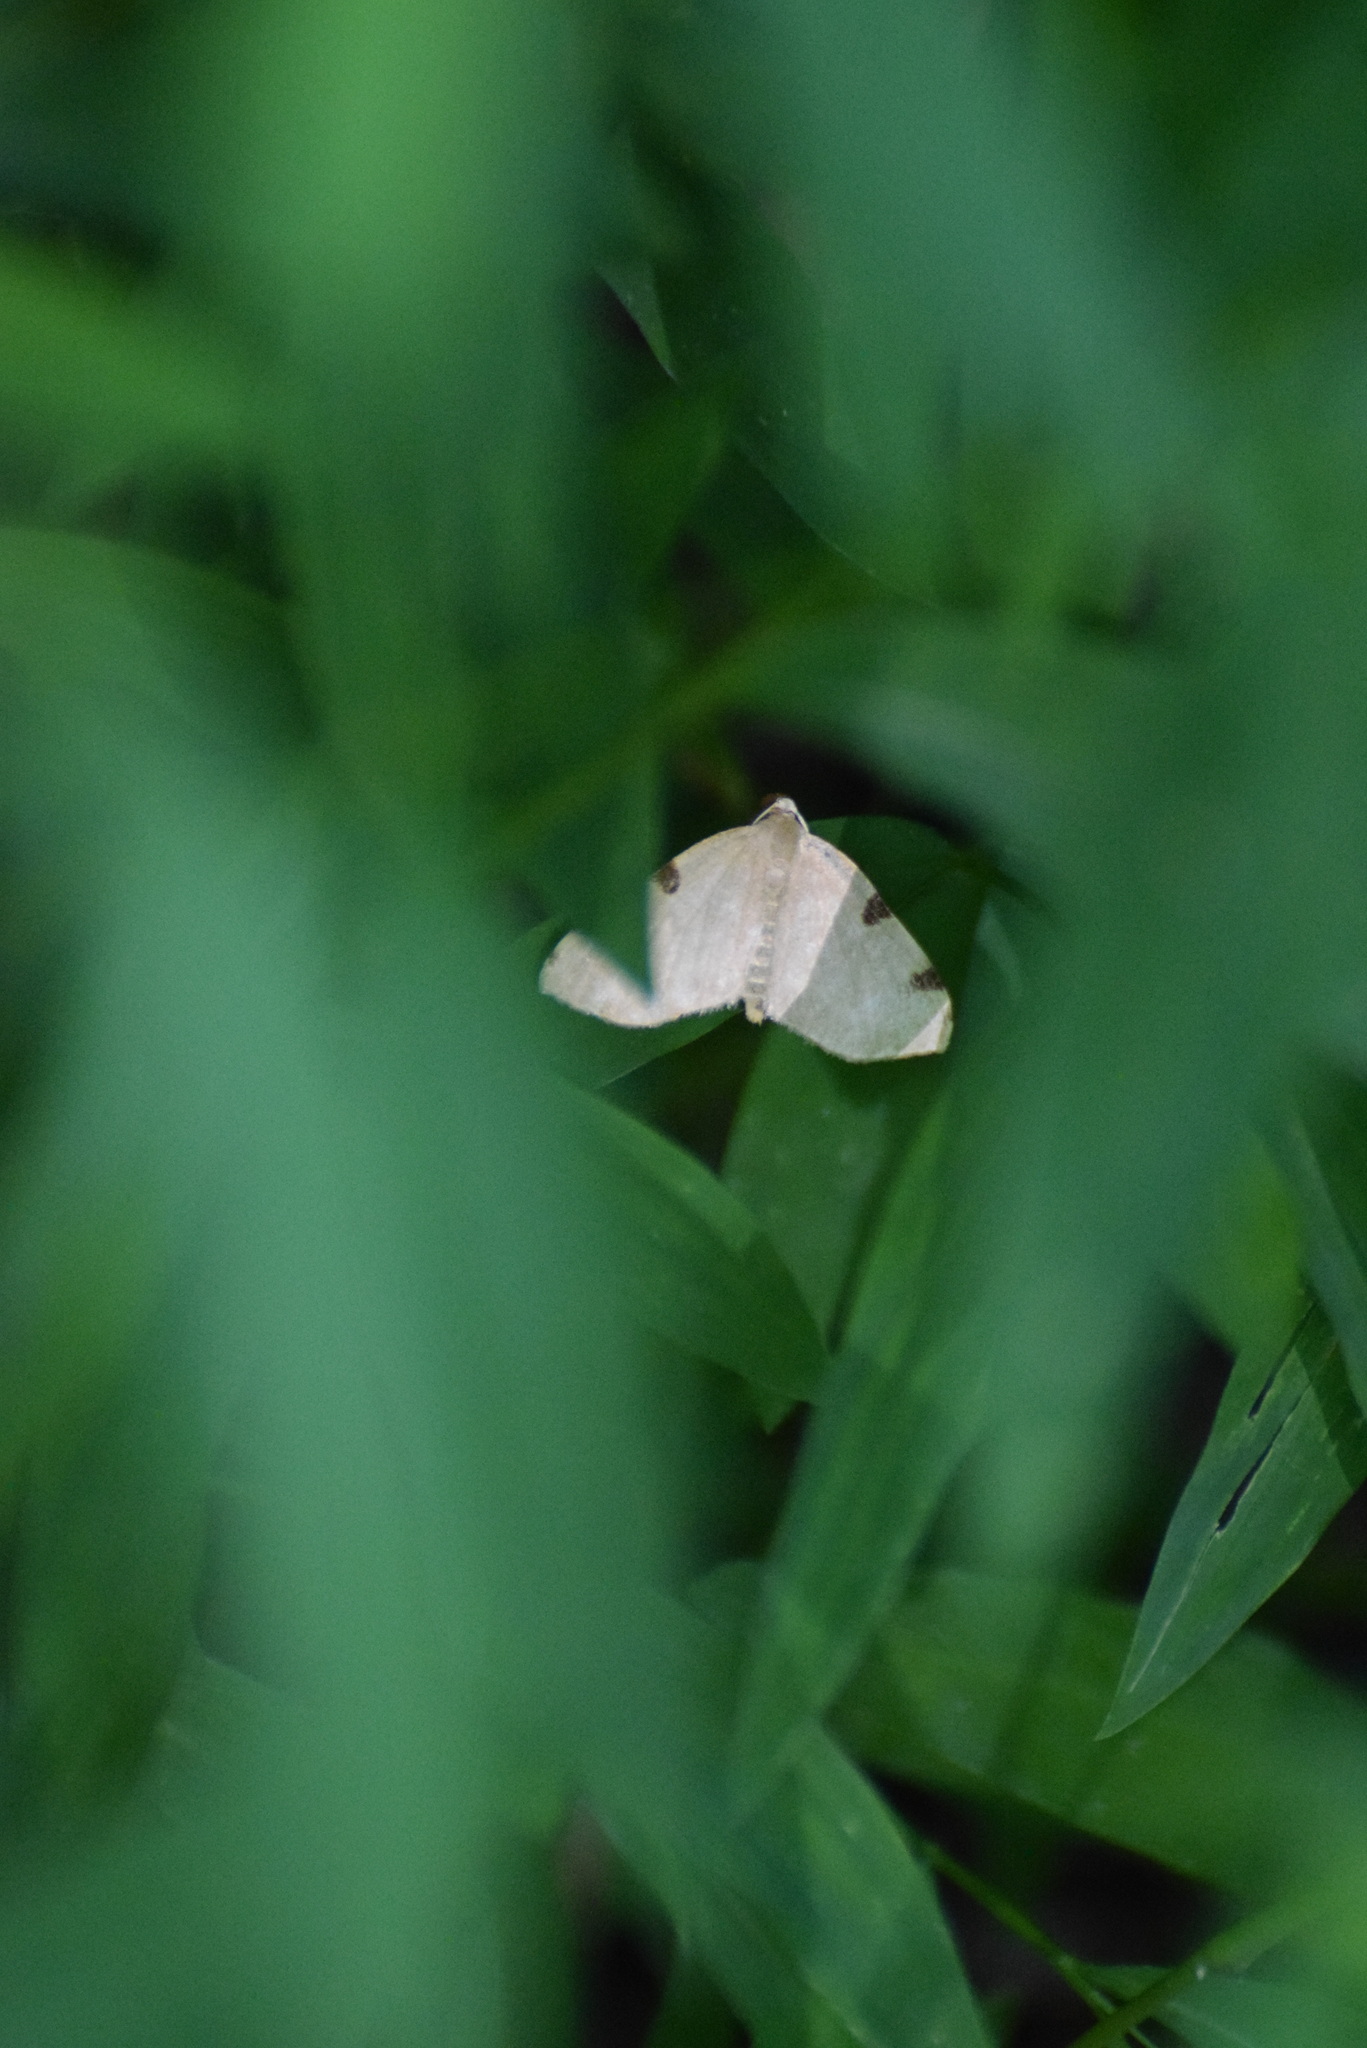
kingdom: Animalia
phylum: Arthropoda
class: Insecta
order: Lepidoptera
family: Geometridae
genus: Heterophleps
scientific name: Heterophleps triguttaria
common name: Three-spotted fillip
